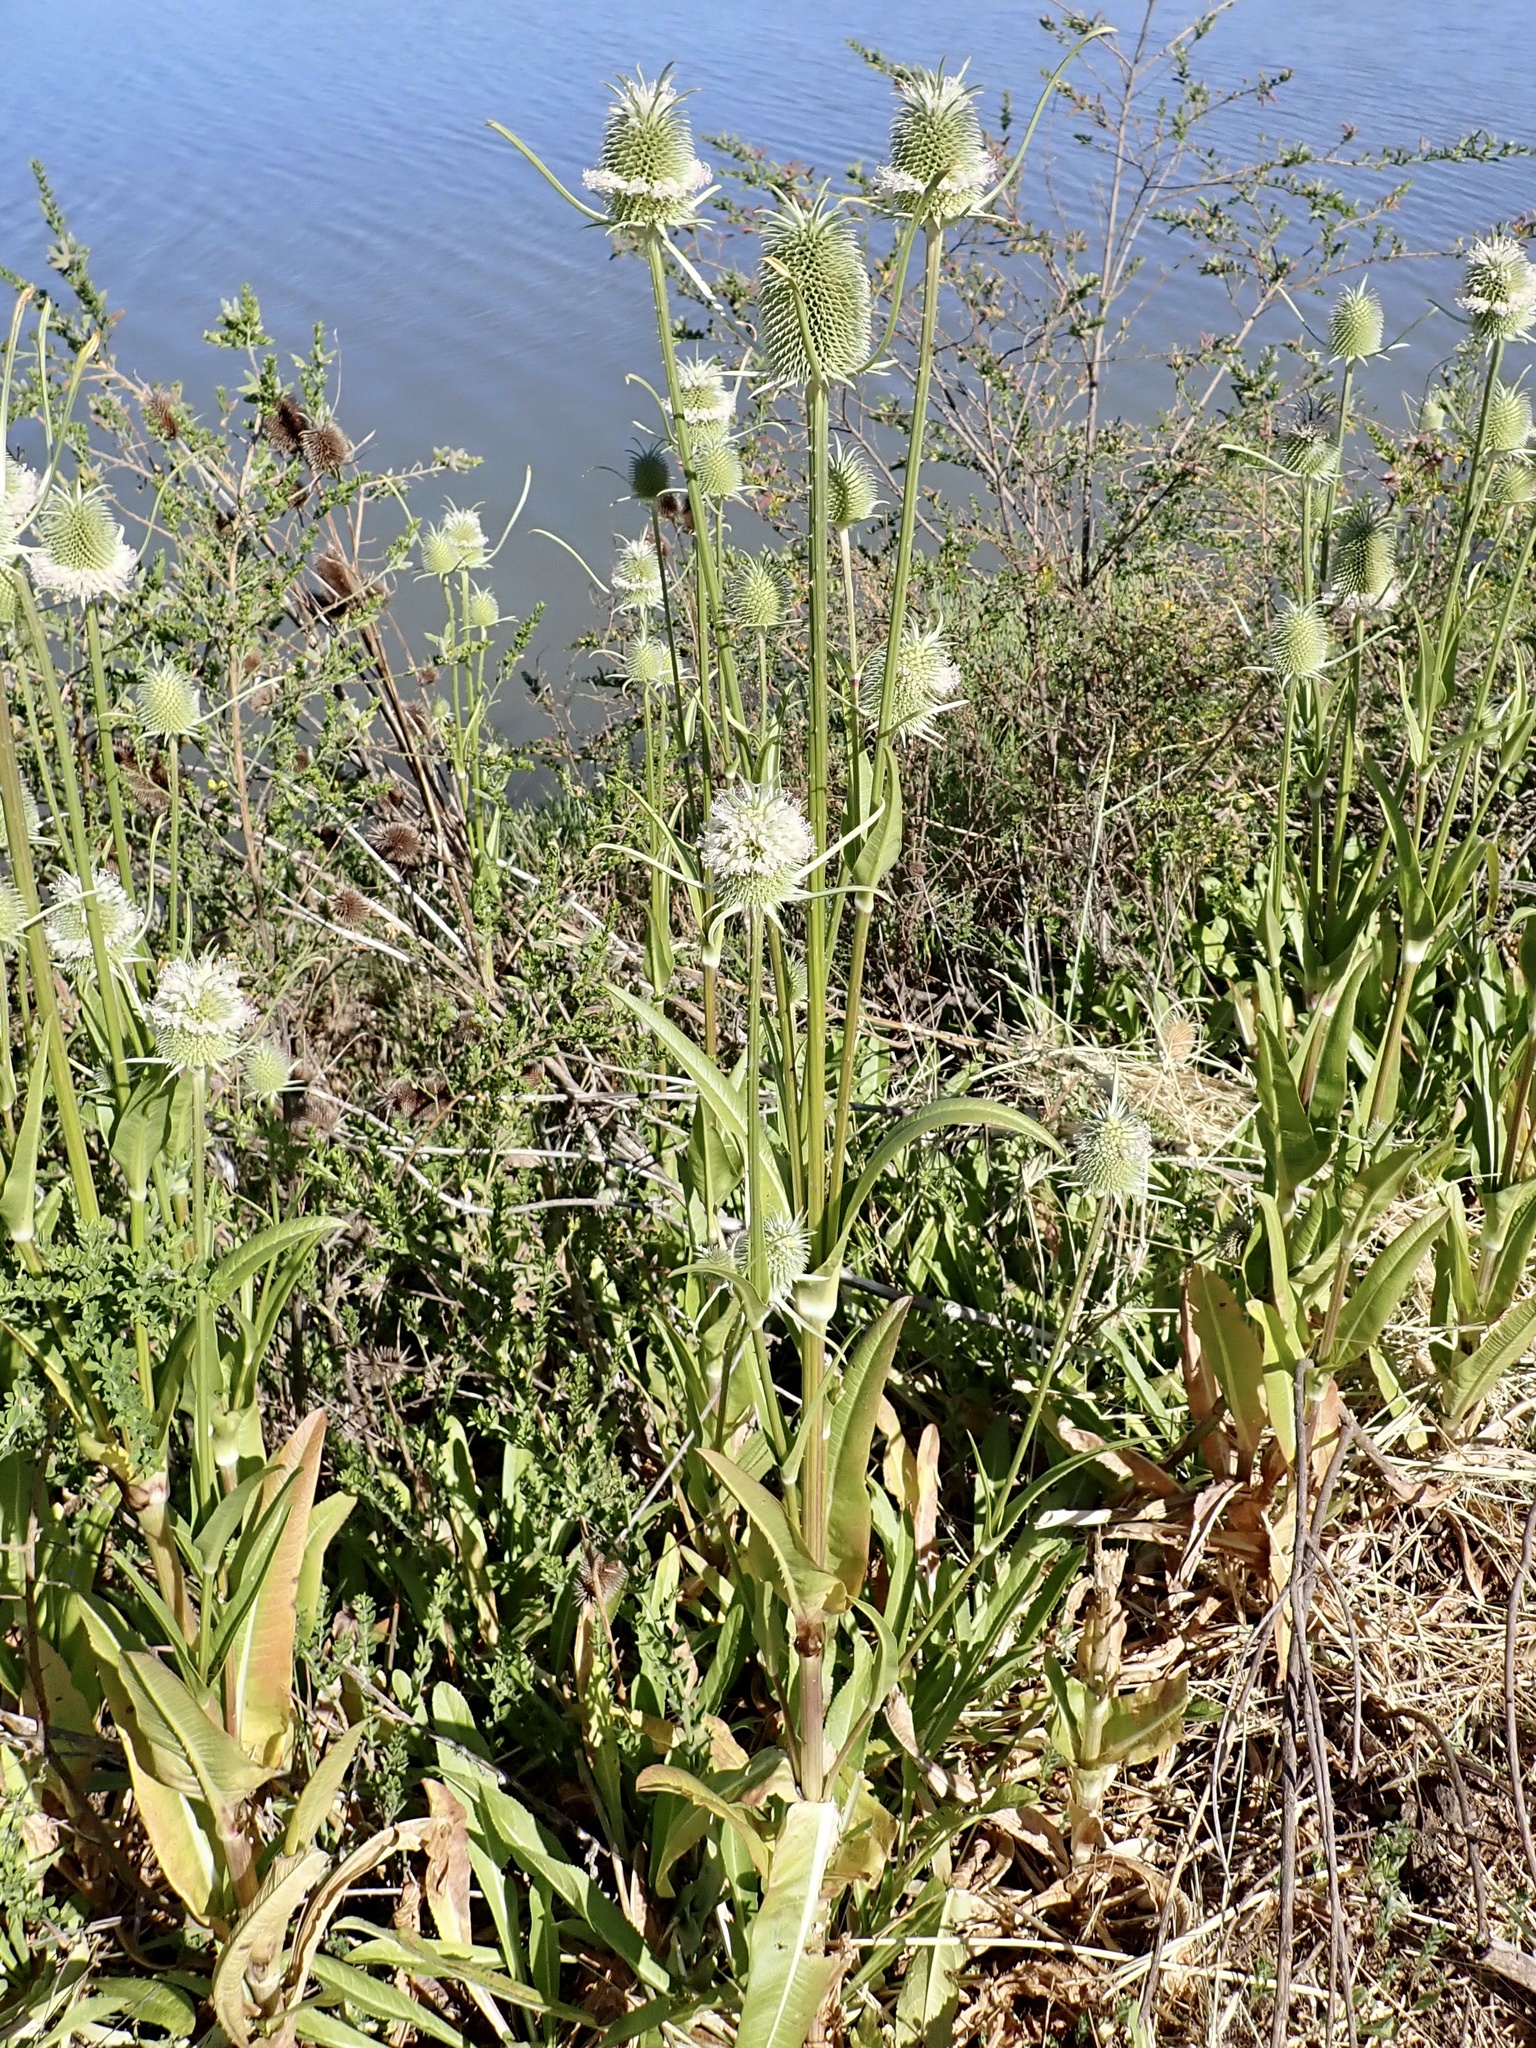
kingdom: Plantae
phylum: Tracheophyta
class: Magnoliopsida
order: Dipsacales
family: Caprifoliaceae
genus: Dipsacus
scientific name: Dipsacus sativus
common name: Fuller's teasel
